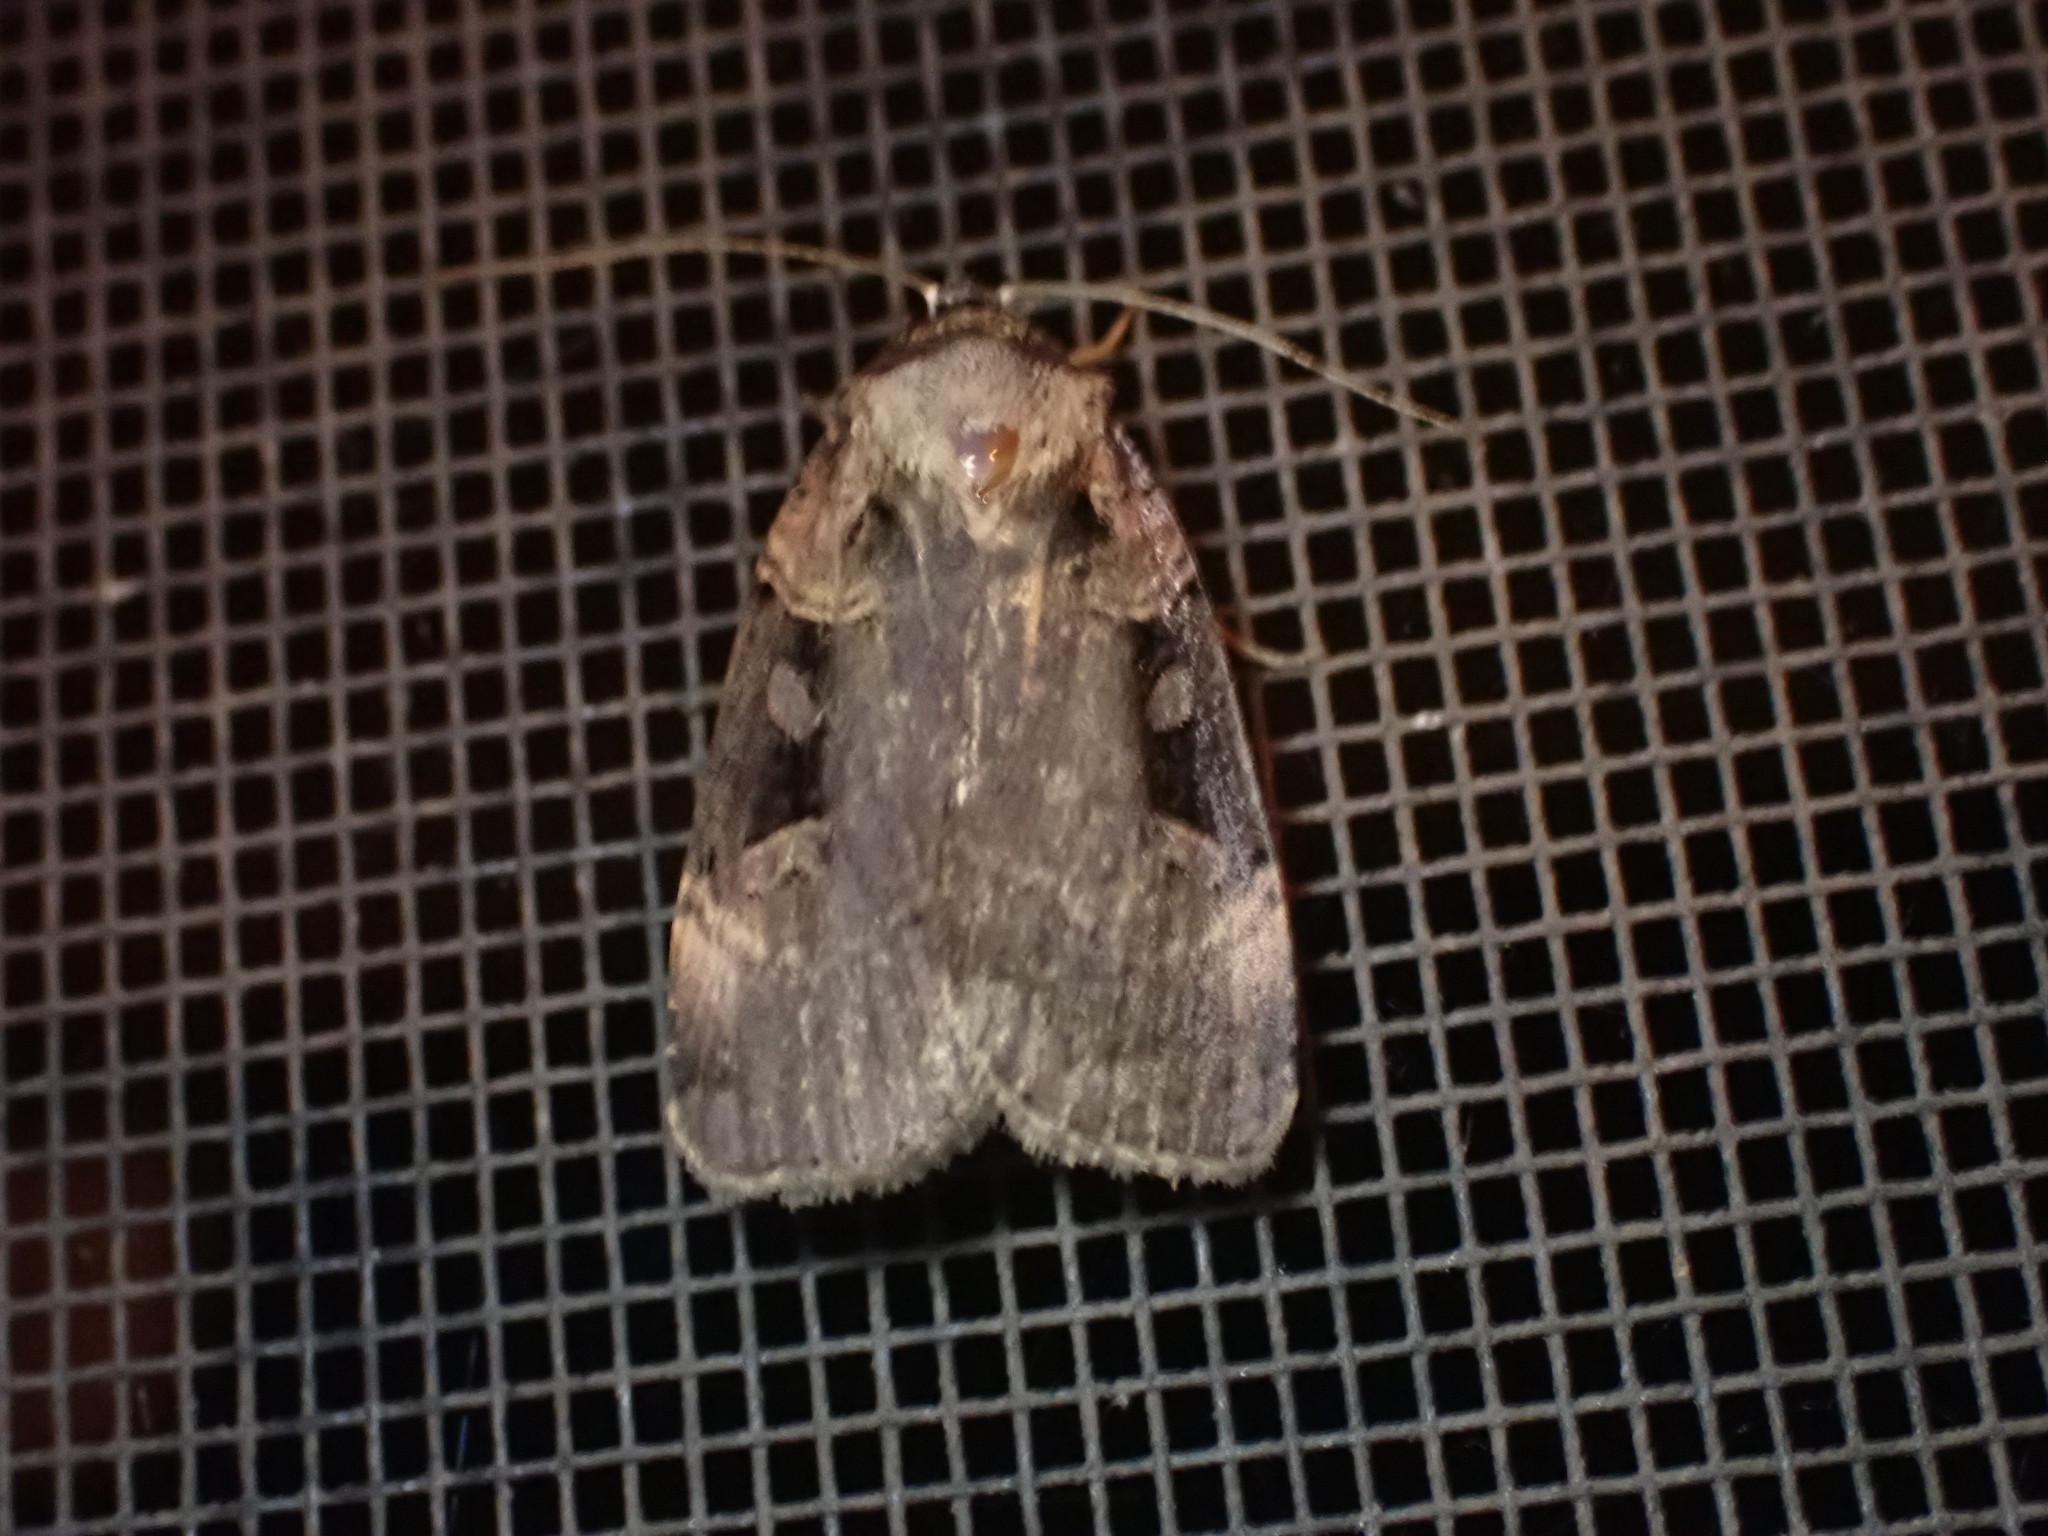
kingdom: Animalia
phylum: Arthropoda
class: Insecta
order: Lepidoptera
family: Noctuidae
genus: Pseudohermonassa
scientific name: Pseudohermonassa bicarnea
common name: Pink spotted dart
